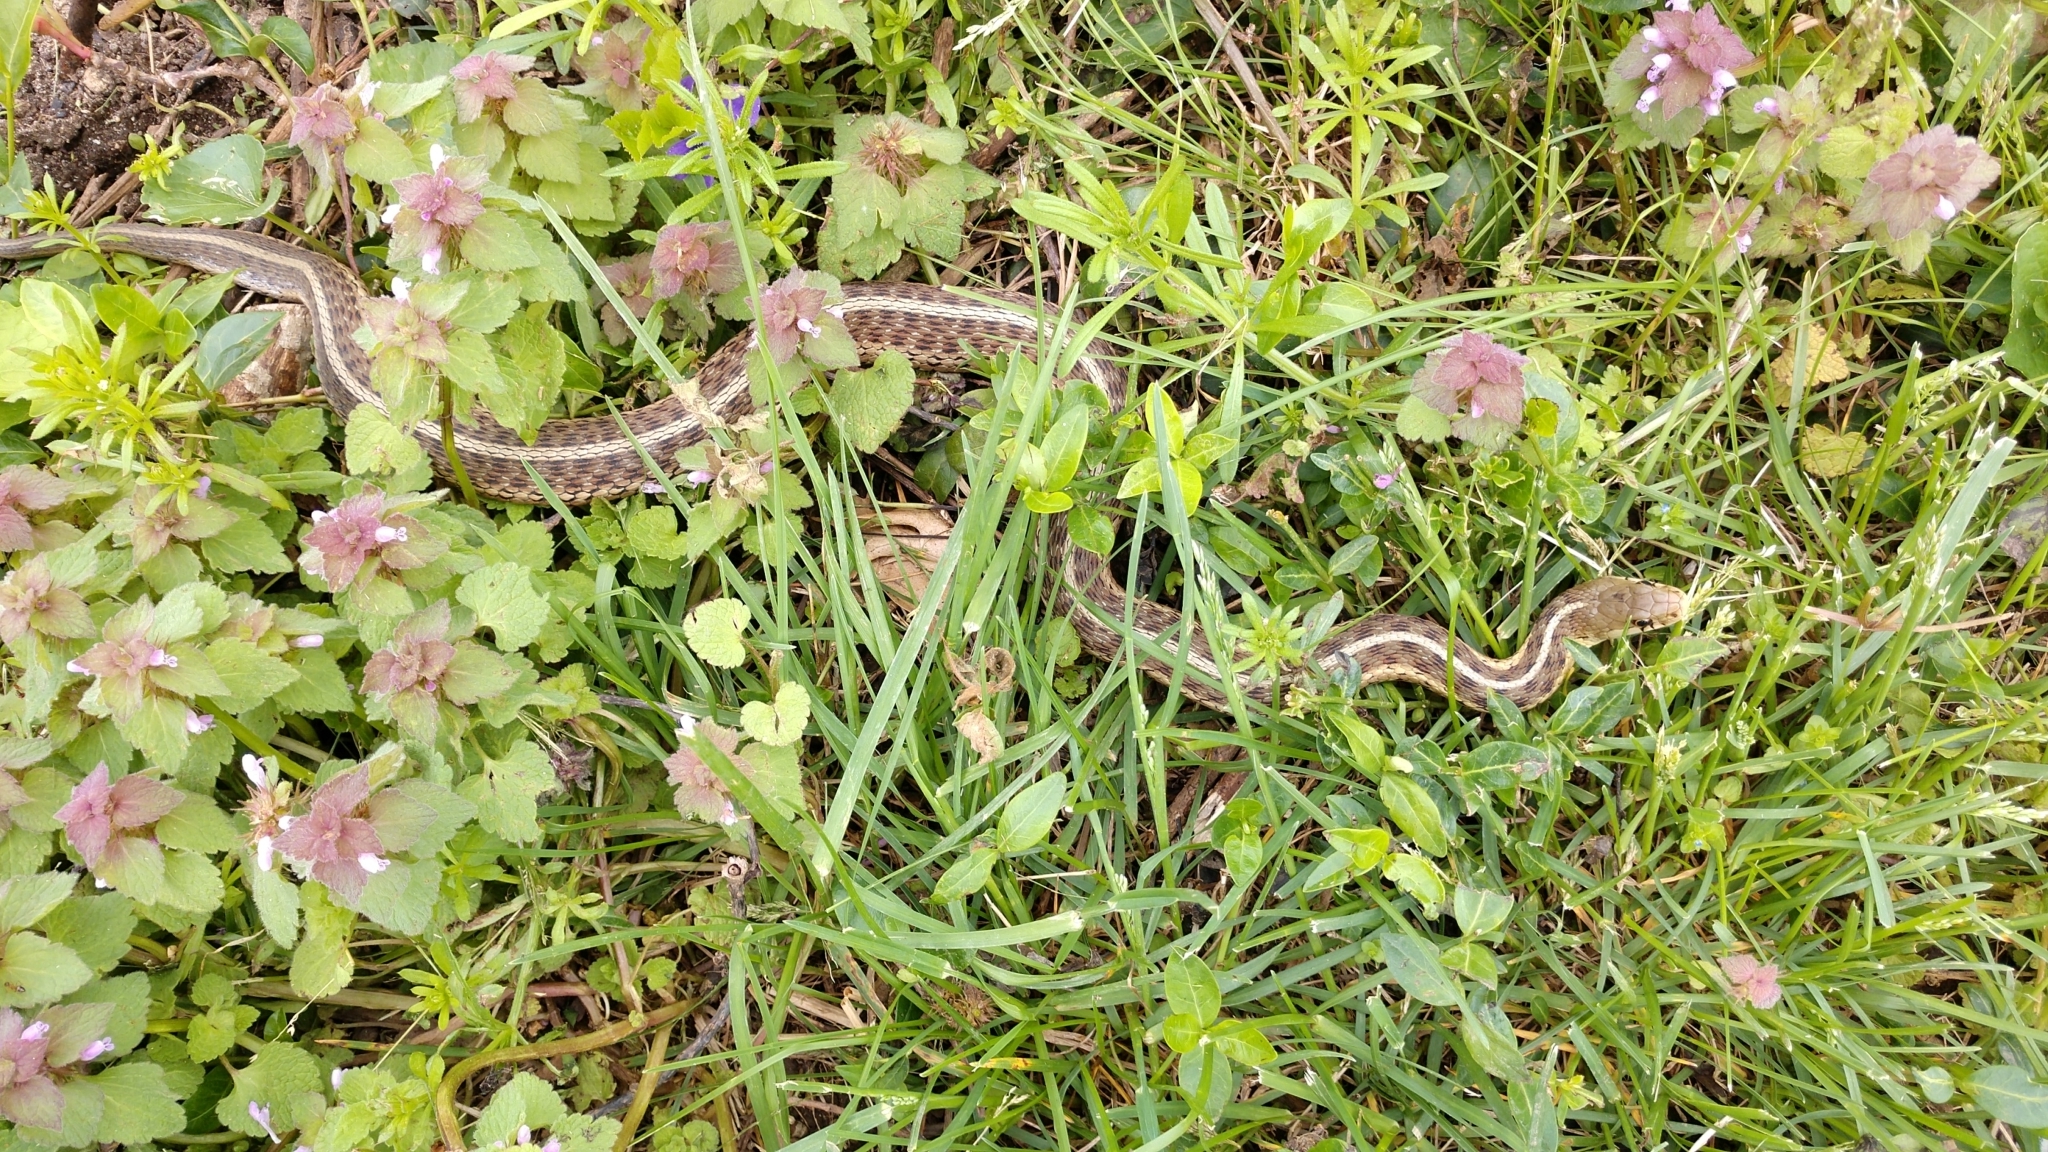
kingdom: Animalia
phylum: Chordata
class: Squamata
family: Colubridae
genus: Thamnophis
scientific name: Thamnophis sirtalis
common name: Common garter snake
